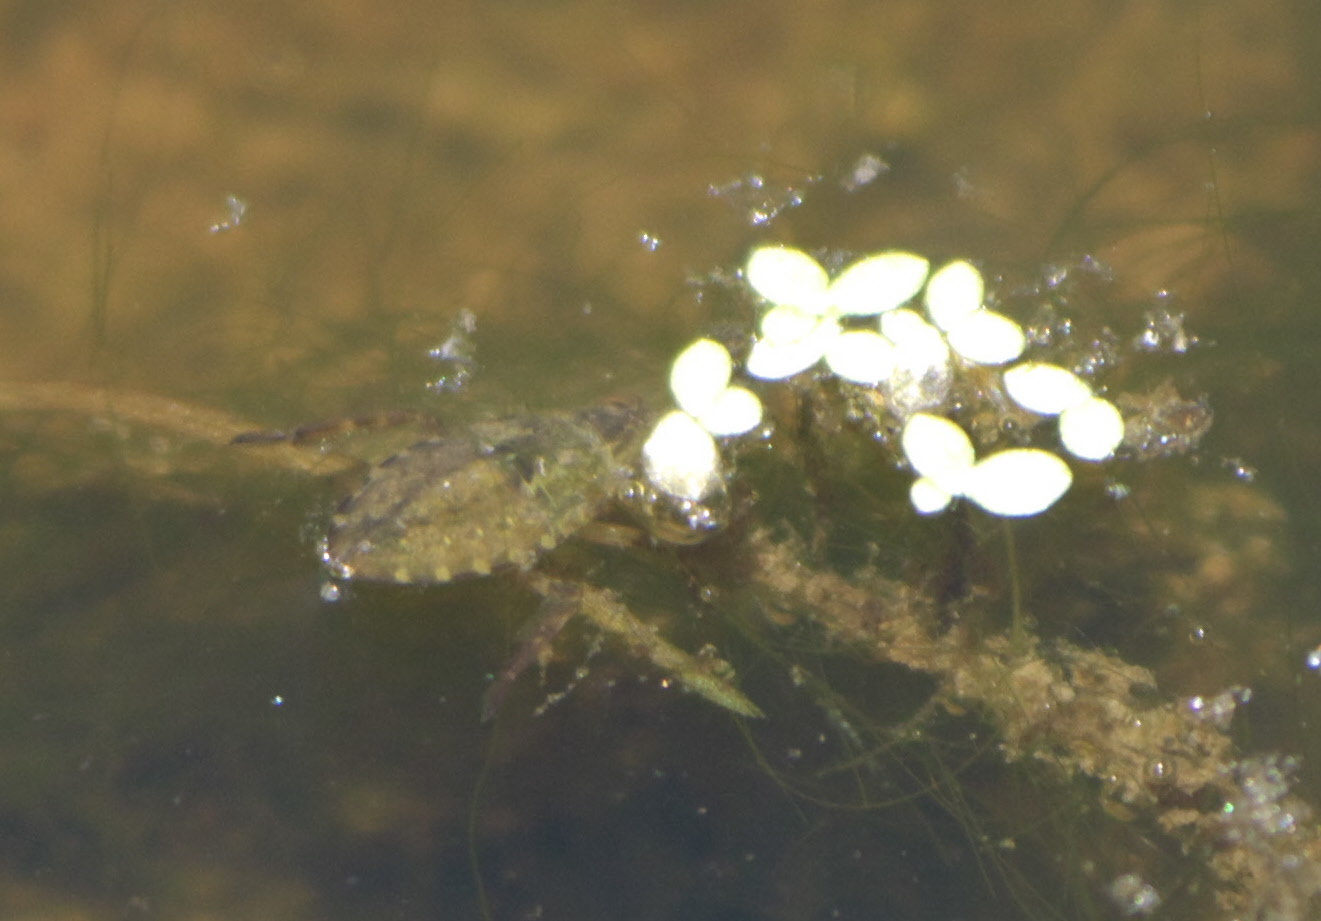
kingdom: Animalia
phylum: Arthropoda
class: Insecta
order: Hemiptera
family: Belostomatidae
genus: Belostoma
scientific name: Belostoma
